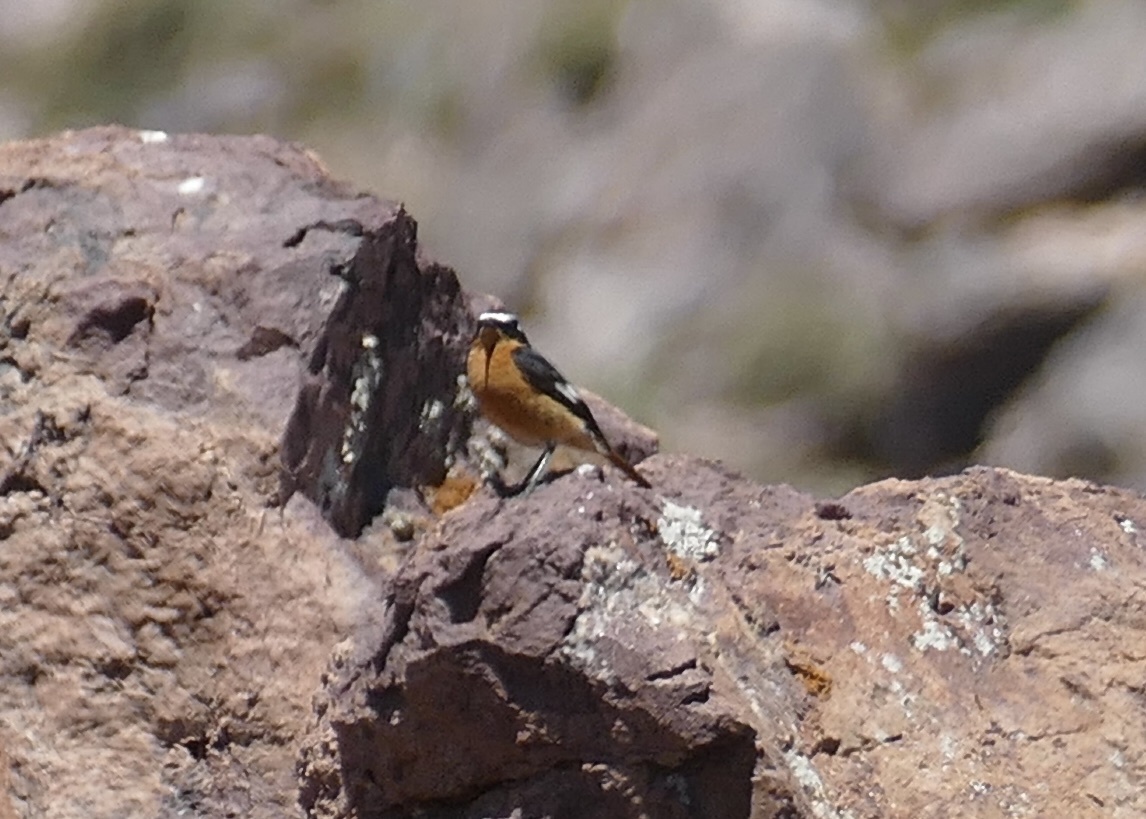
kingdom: Animalia
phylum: Chordata
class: Aves
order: Passeriformes
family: Muscicapidae
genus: Phoenicurus
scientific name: Phoenicurus moussieri
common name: Moussier's redstart
